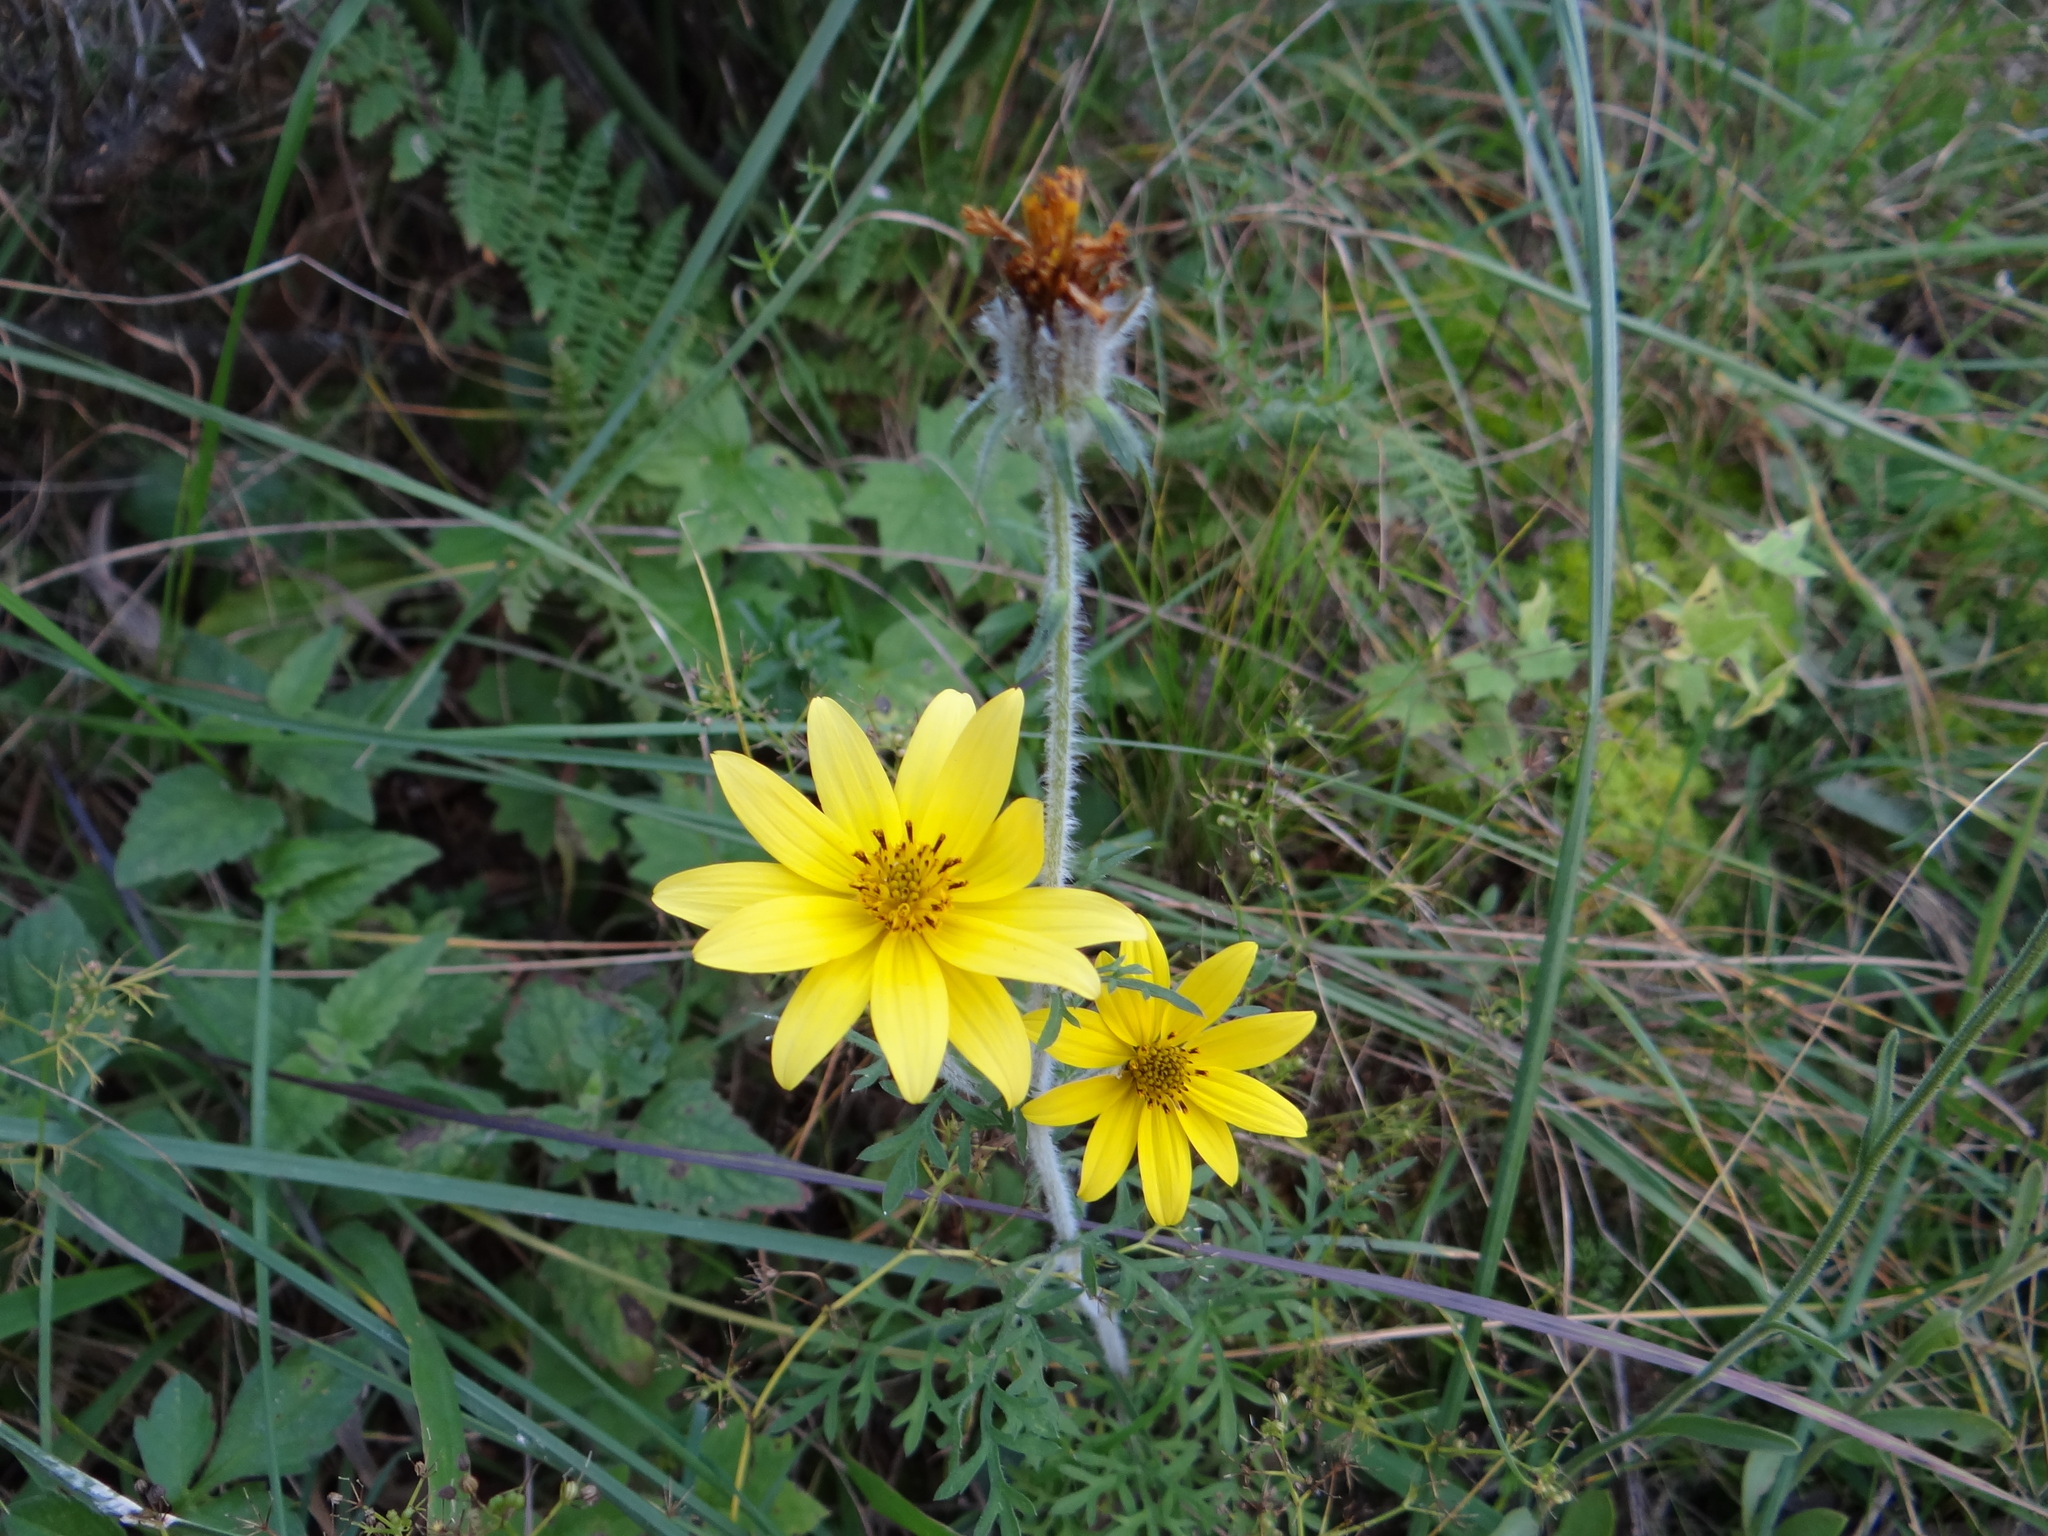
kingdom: Plantae
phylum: Tracheophyta
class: Magnoliopsida
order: Asterales
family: Asteraceae
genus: Bidens
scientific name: Bidens triplinervia
